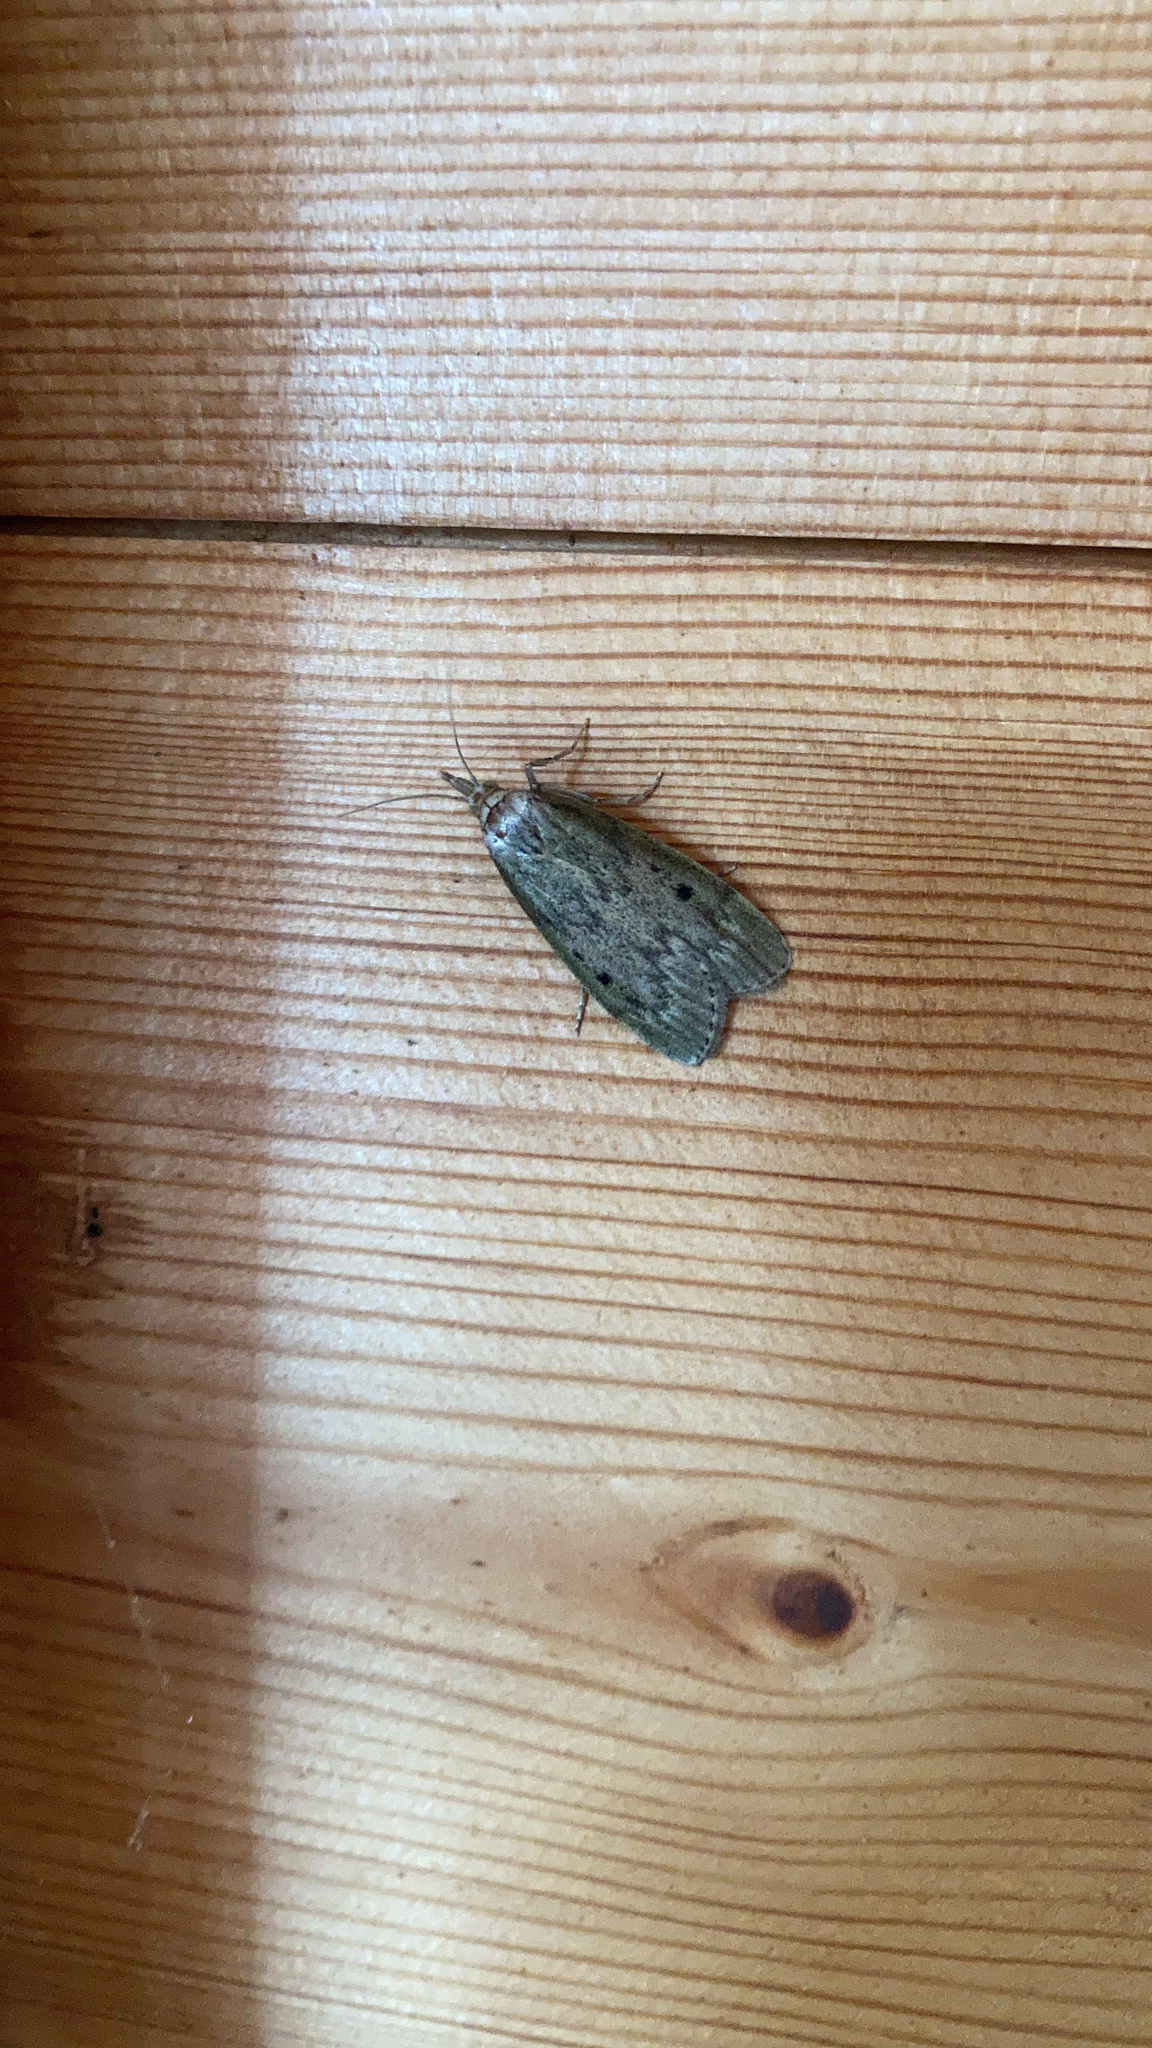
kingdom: Animalia
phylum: Arthropoda
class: Insecta
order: Lepidoptera
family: Pyralidae
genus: Aphomia
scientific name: Aphomia sociella
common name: Bee moth
